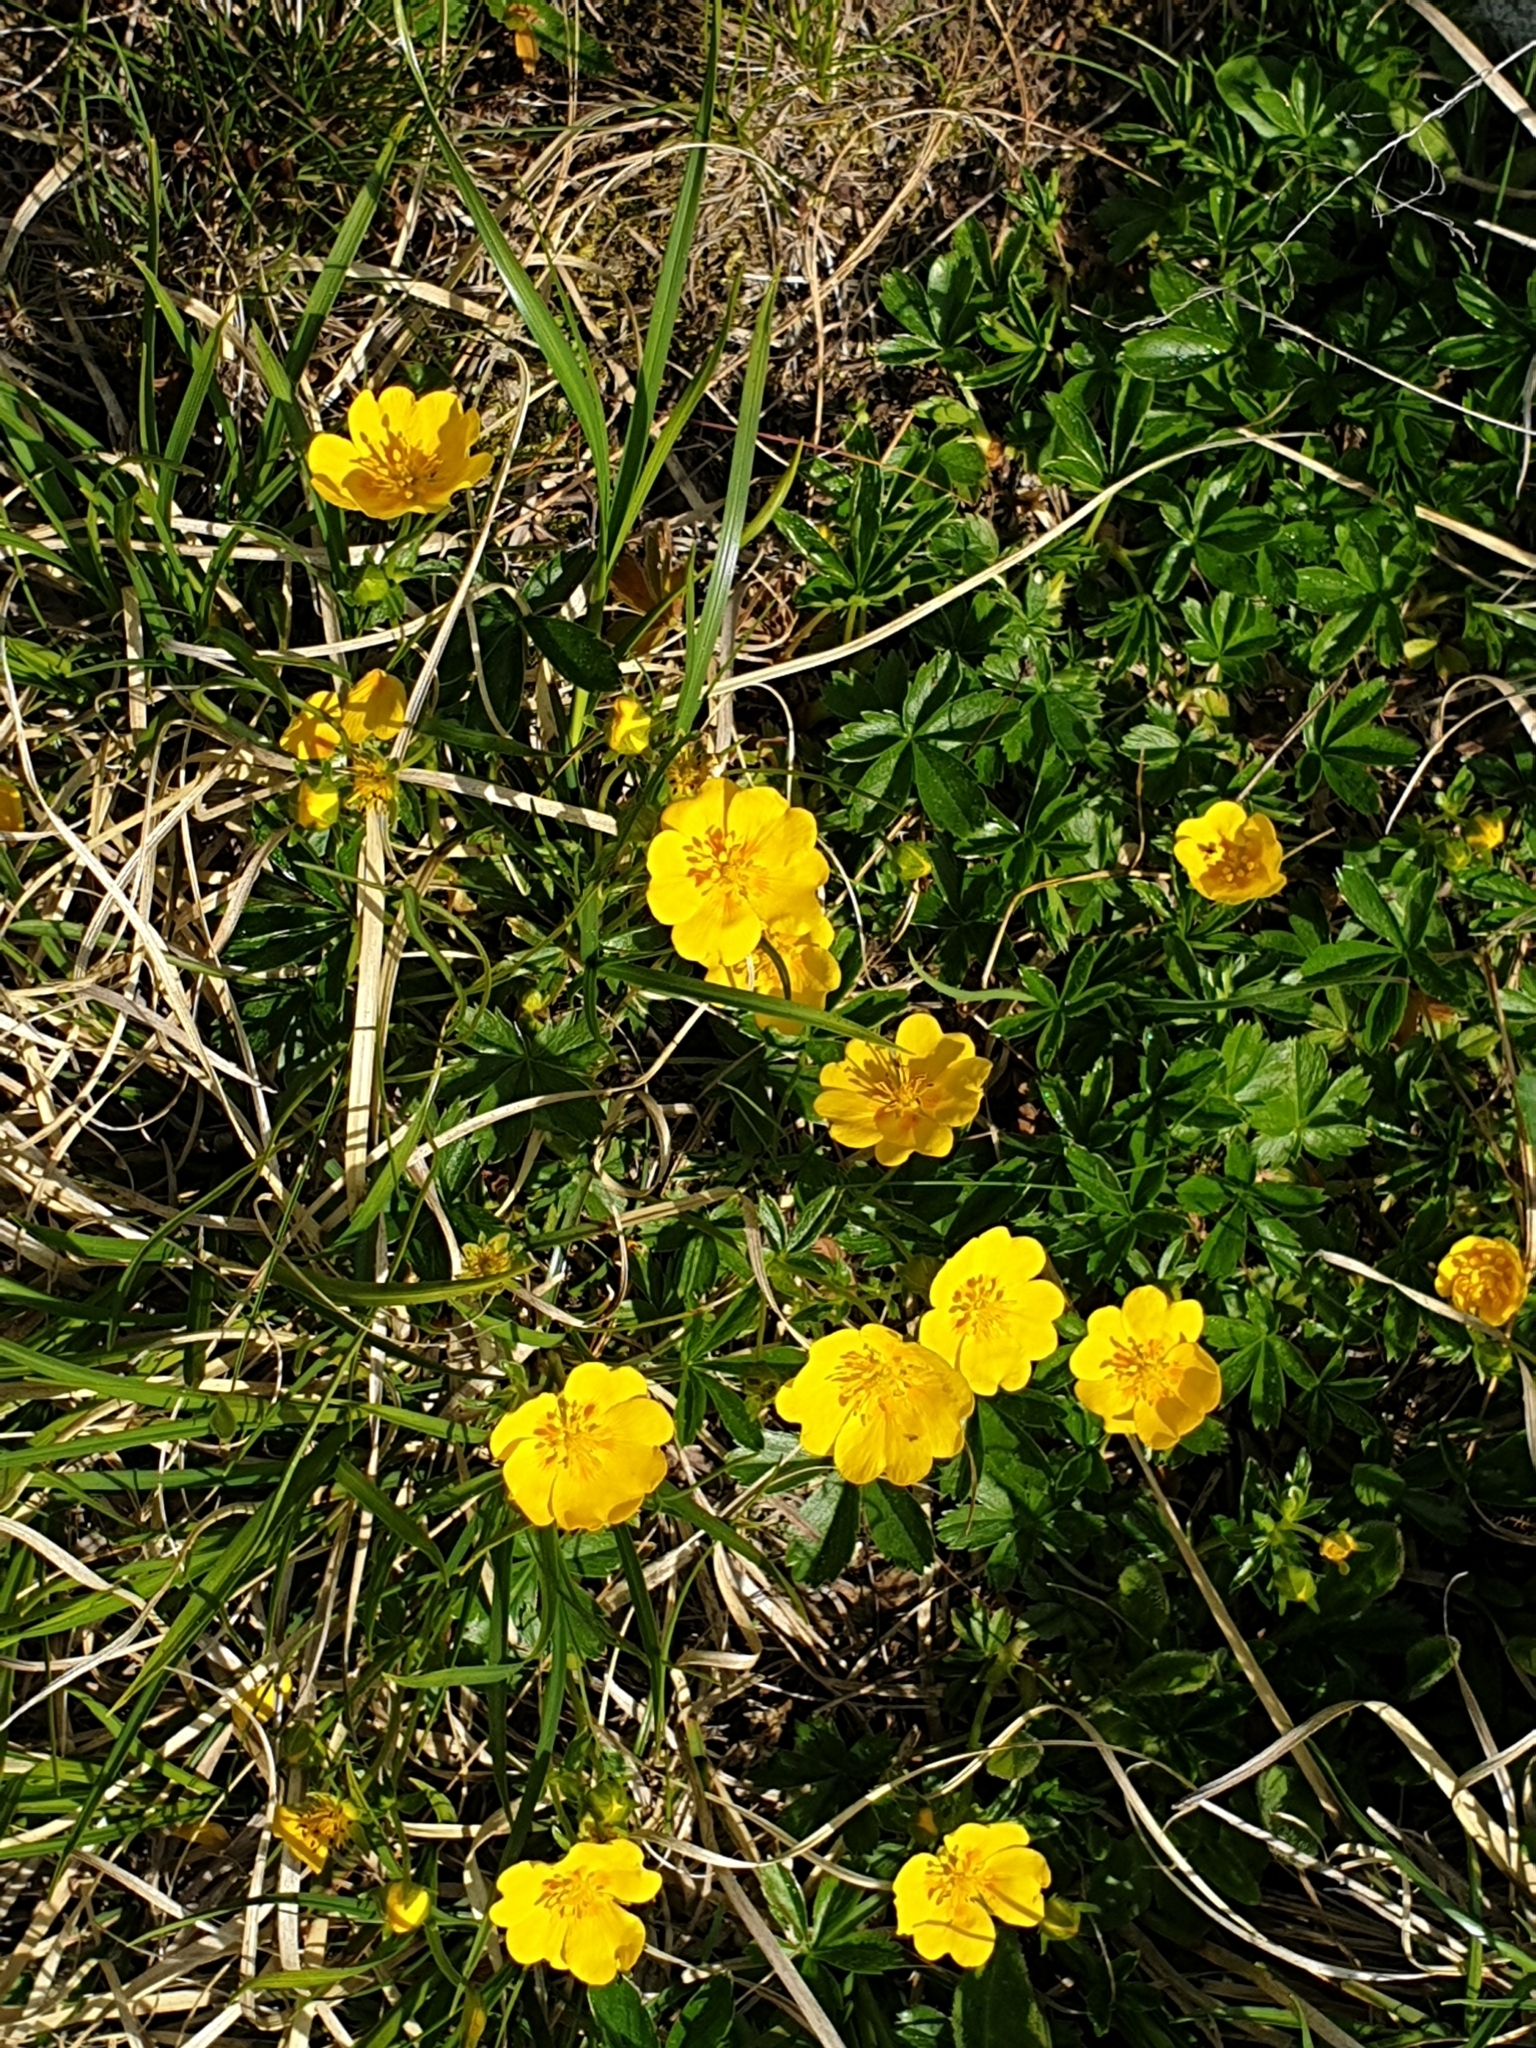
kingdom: Plantae
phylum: Tracheophyta
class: Magnoliopsida
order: Rosales
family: Rosaceae
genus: Potentilla
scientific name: Potentilla aurea
